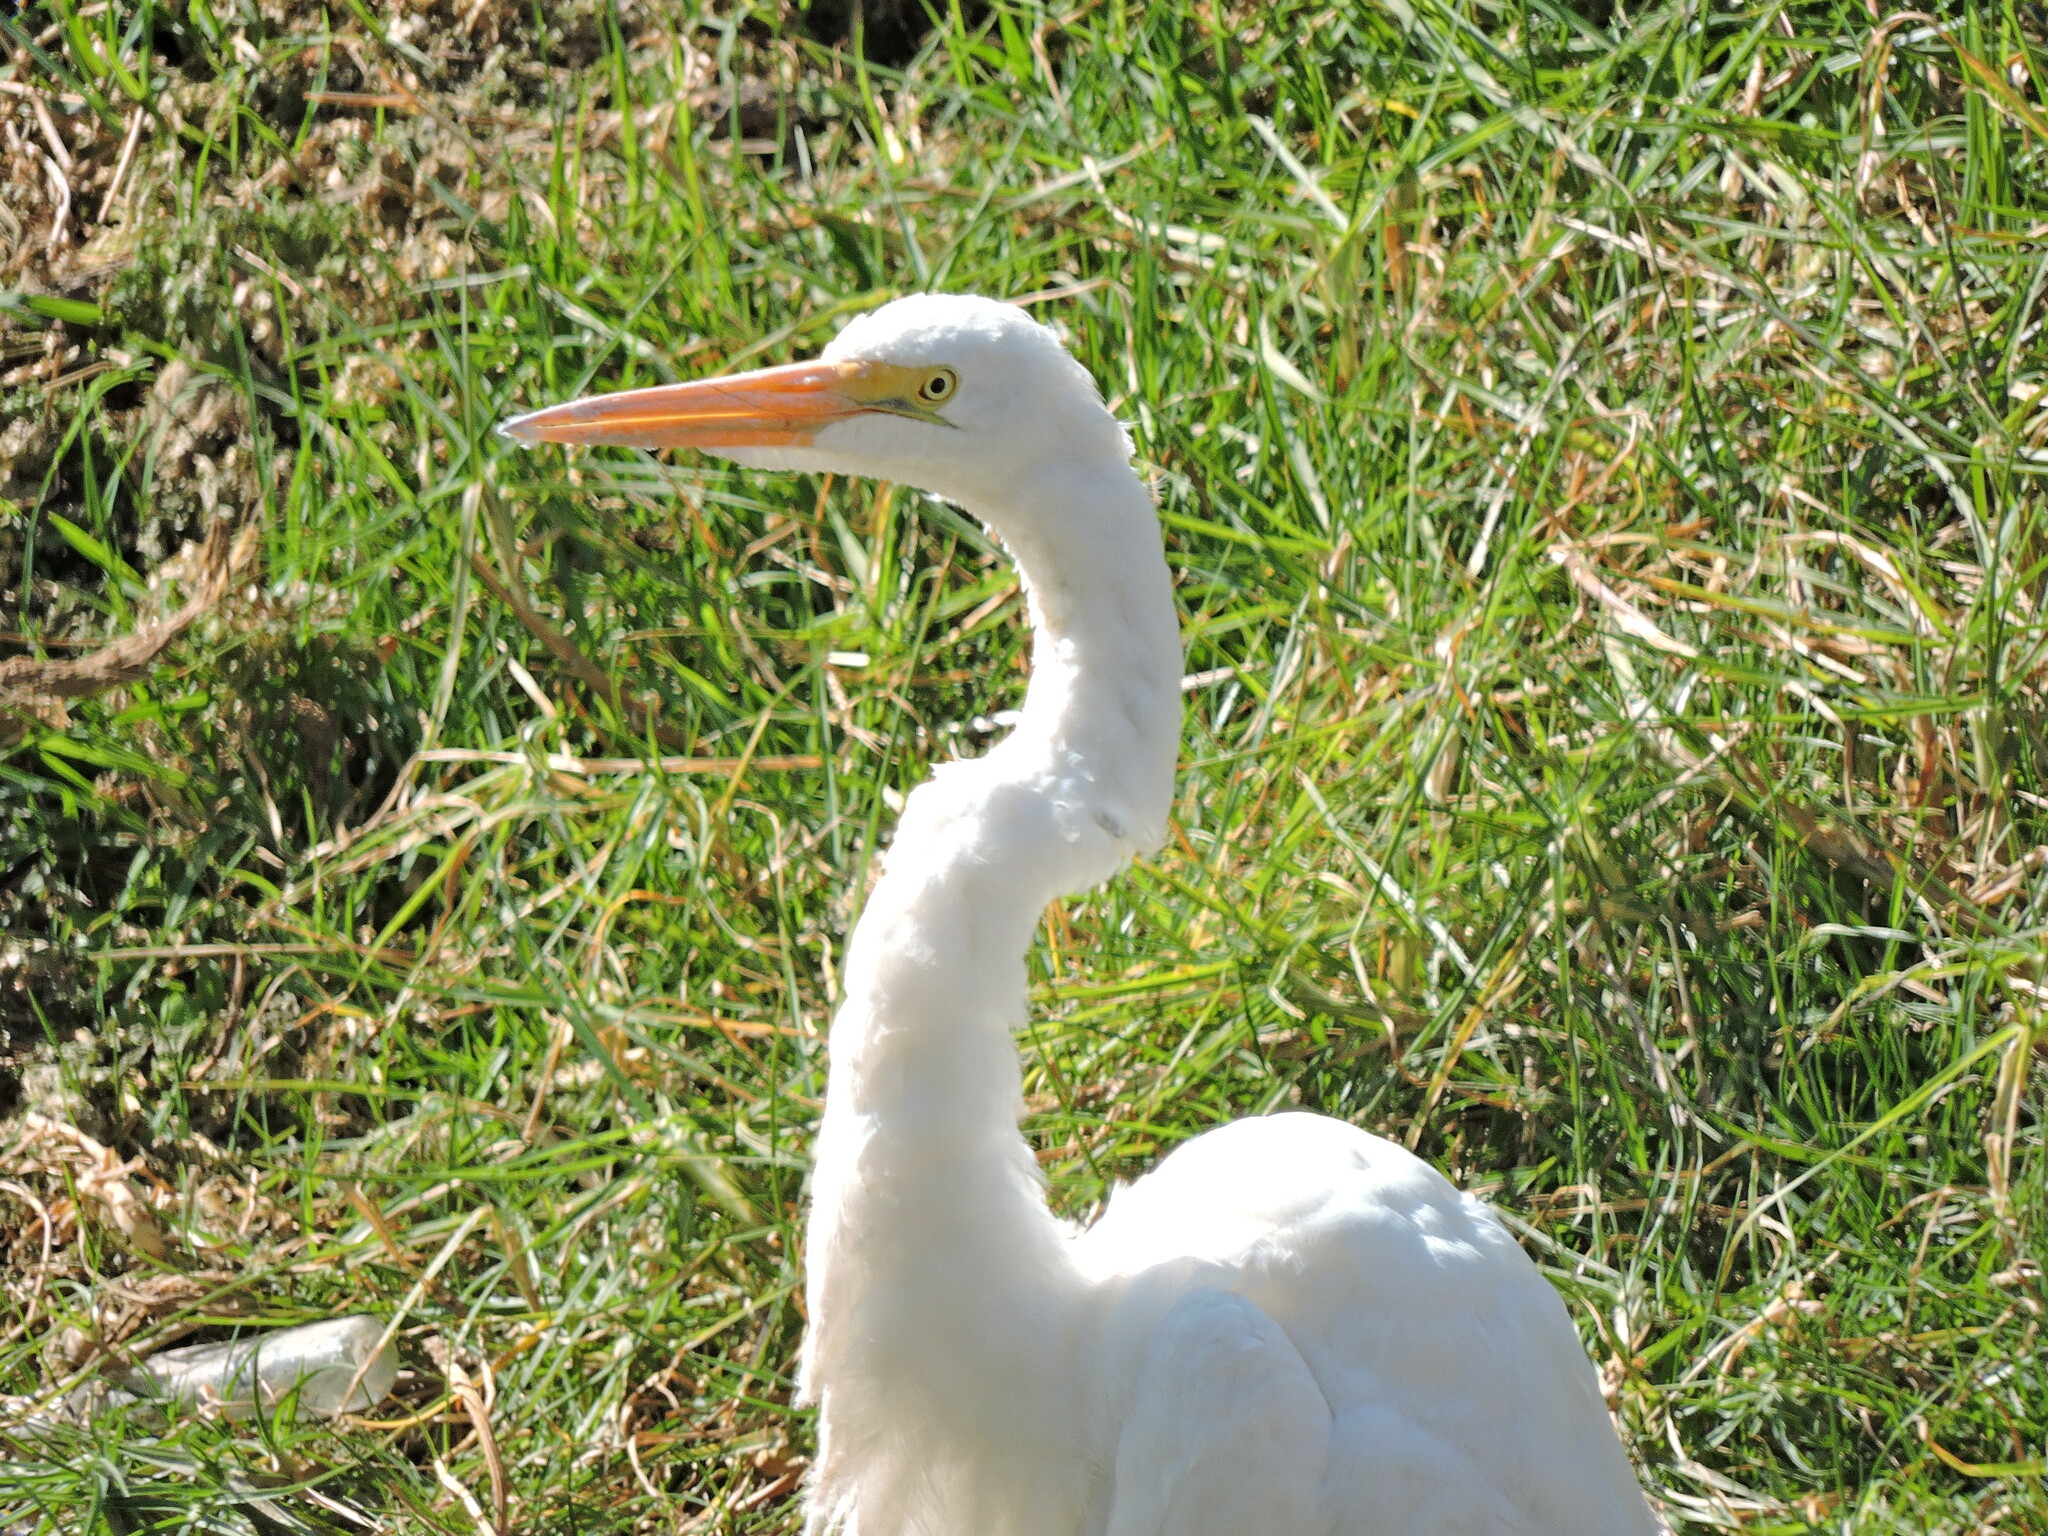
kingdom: Animalia
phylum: Chordata
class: Aves
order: Pelecaniformes
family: Ardeidae
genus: Ardea
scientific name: Ardea alba
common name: Great egret
